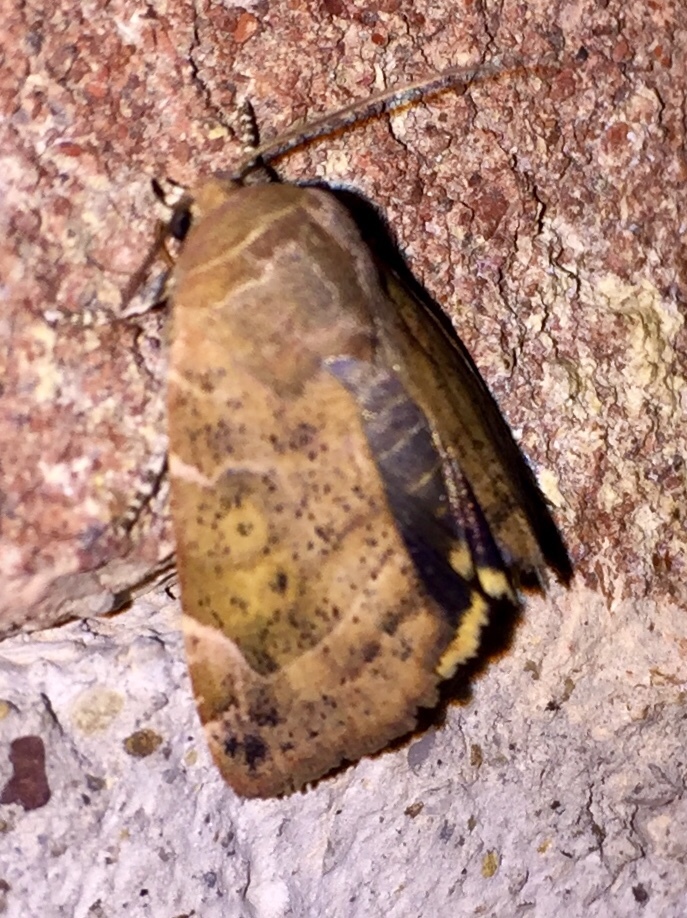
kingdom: Animalia
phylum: Arthropoda
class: Insecta
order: Lepidoptera
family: Noctuidae
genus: Cosmia
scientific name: Cosmia affinis
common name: Lesser-spotted pinion
